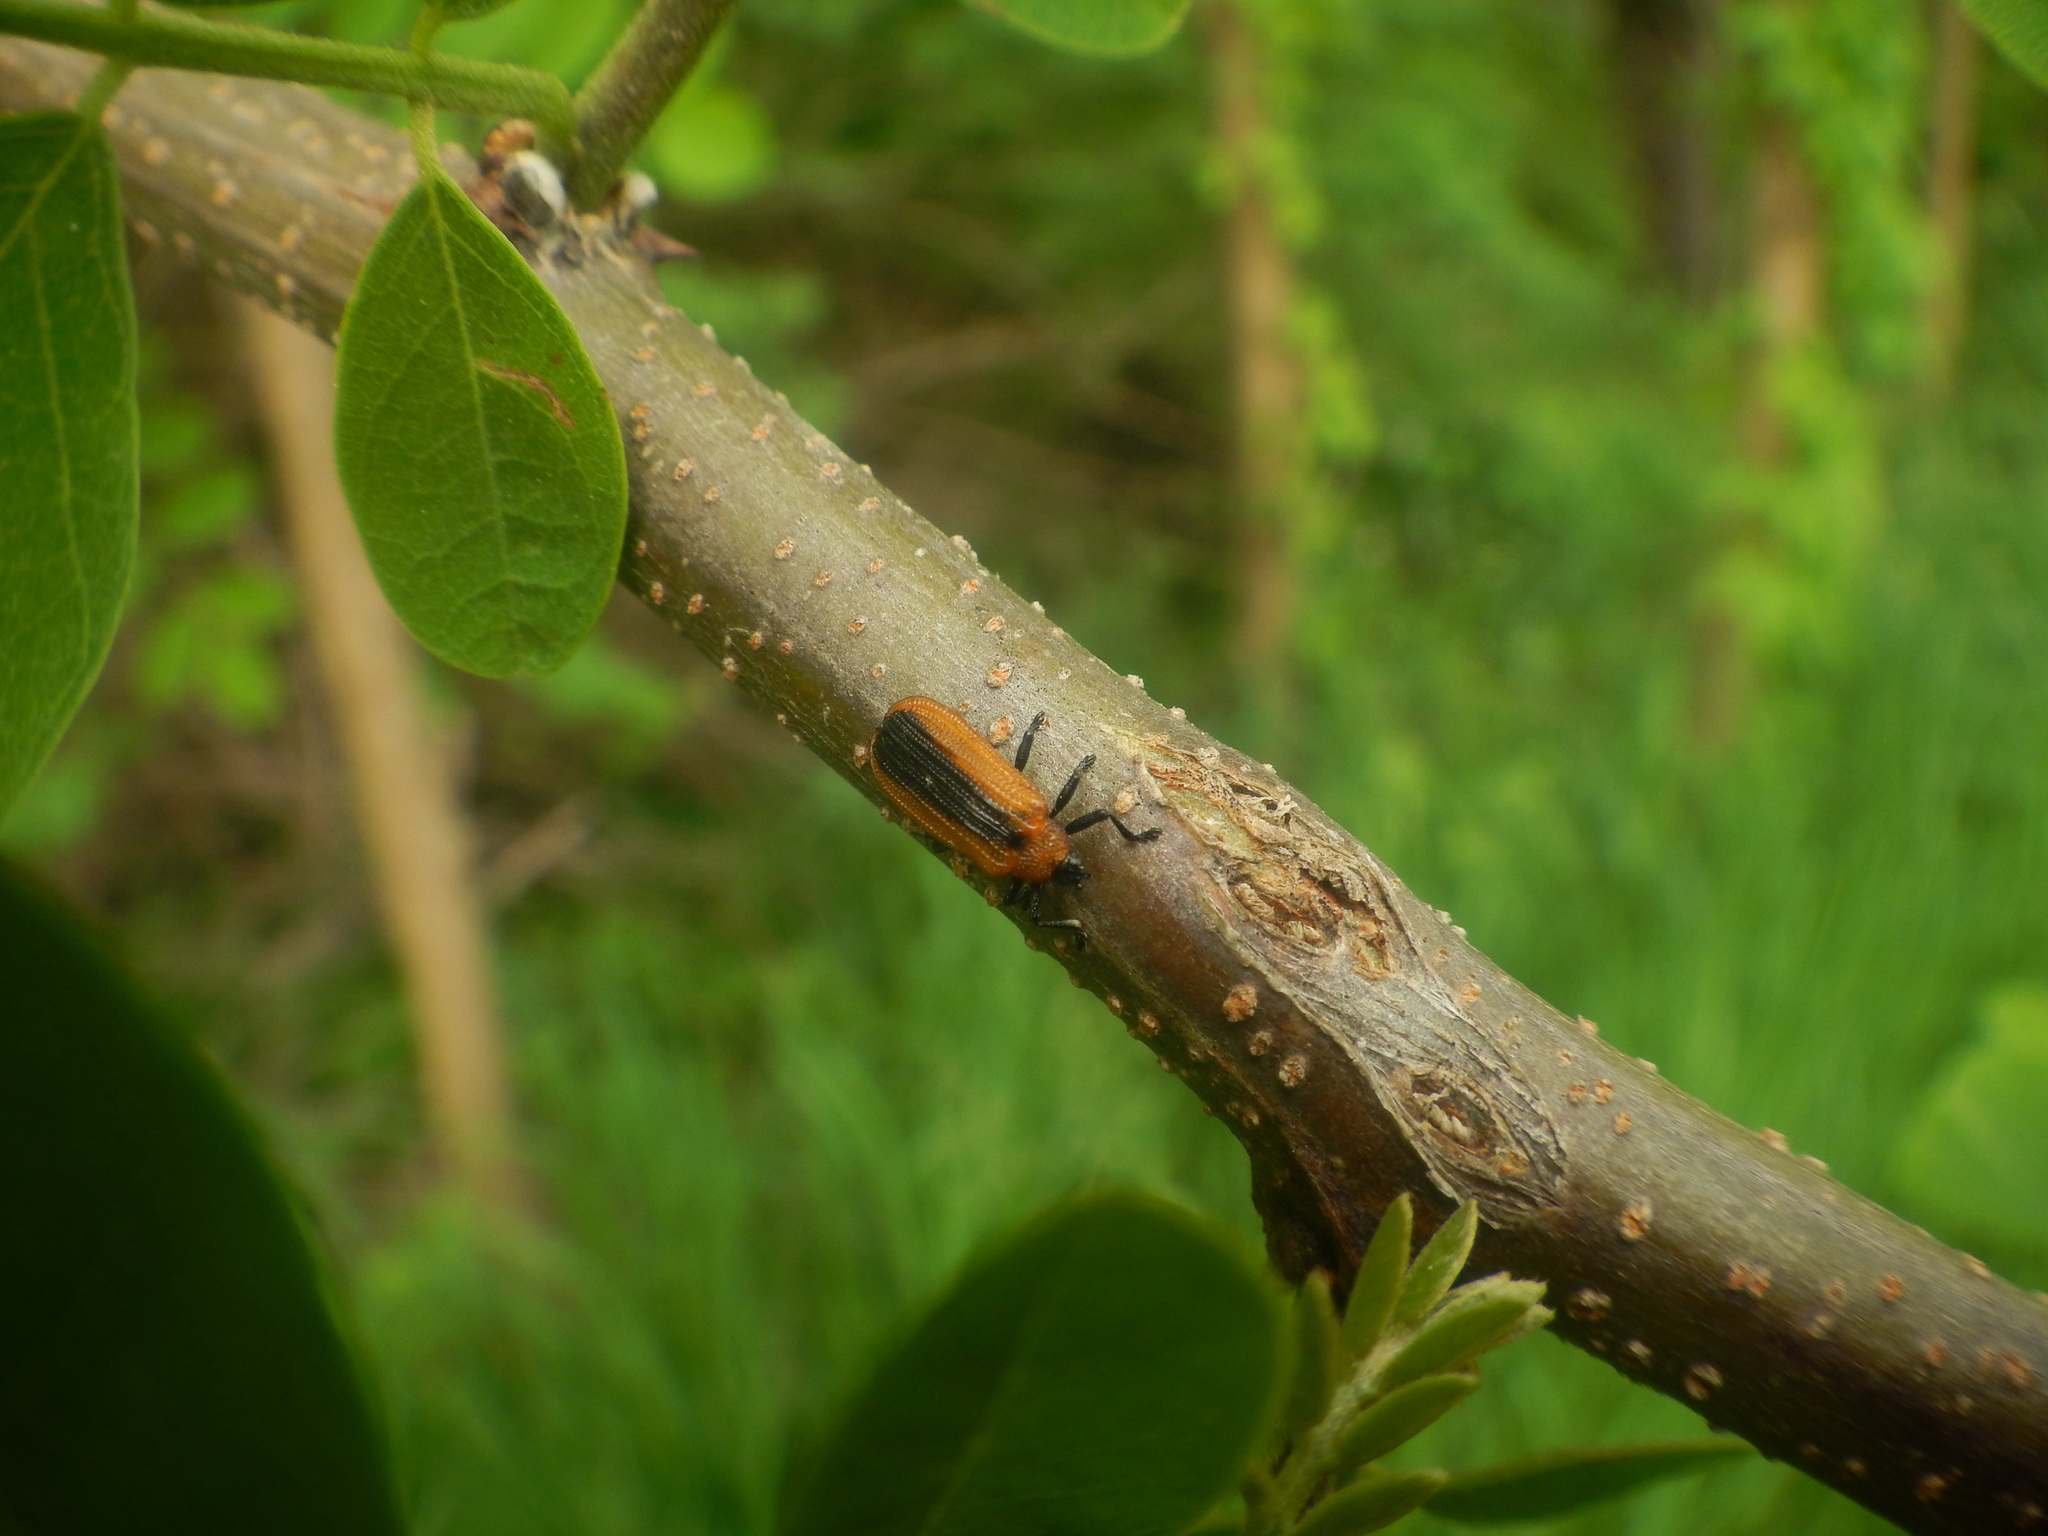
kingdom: Animalia
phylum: Arthropoda
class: Insecta
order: Coleoptera
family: Chrysomelidae
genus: Odontota
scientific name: Odontota dorsalis
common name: Locust leaf-miner beetle
